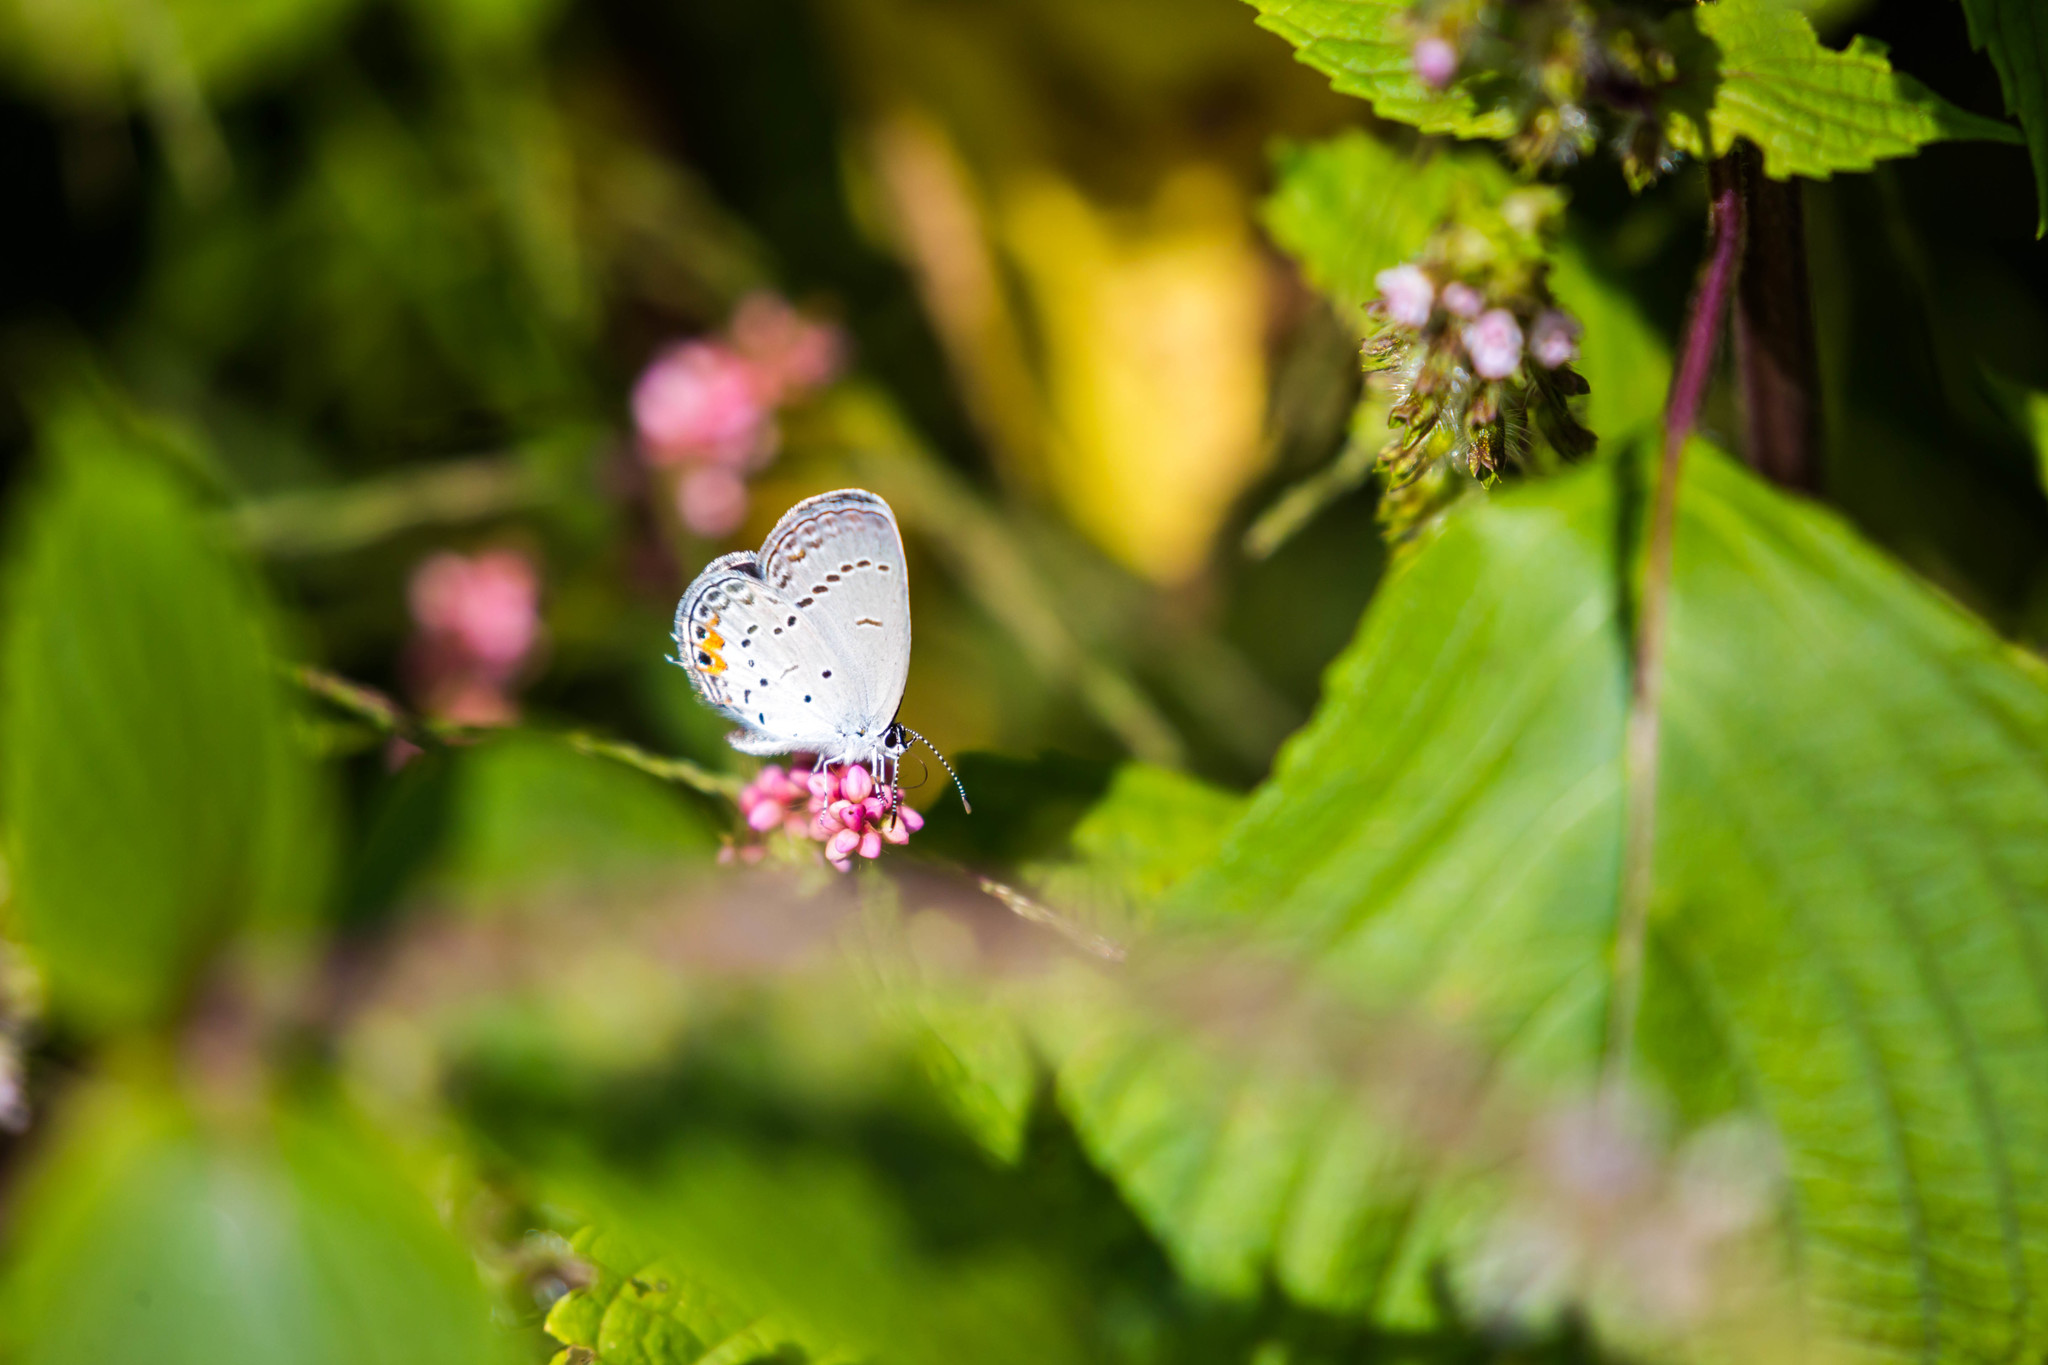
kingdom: Animalia
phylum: Arthropoda
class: Insecta
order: Lepidoptera
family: Lycaenidae
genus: Elkalyce
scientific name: Elkalyce comyntas
